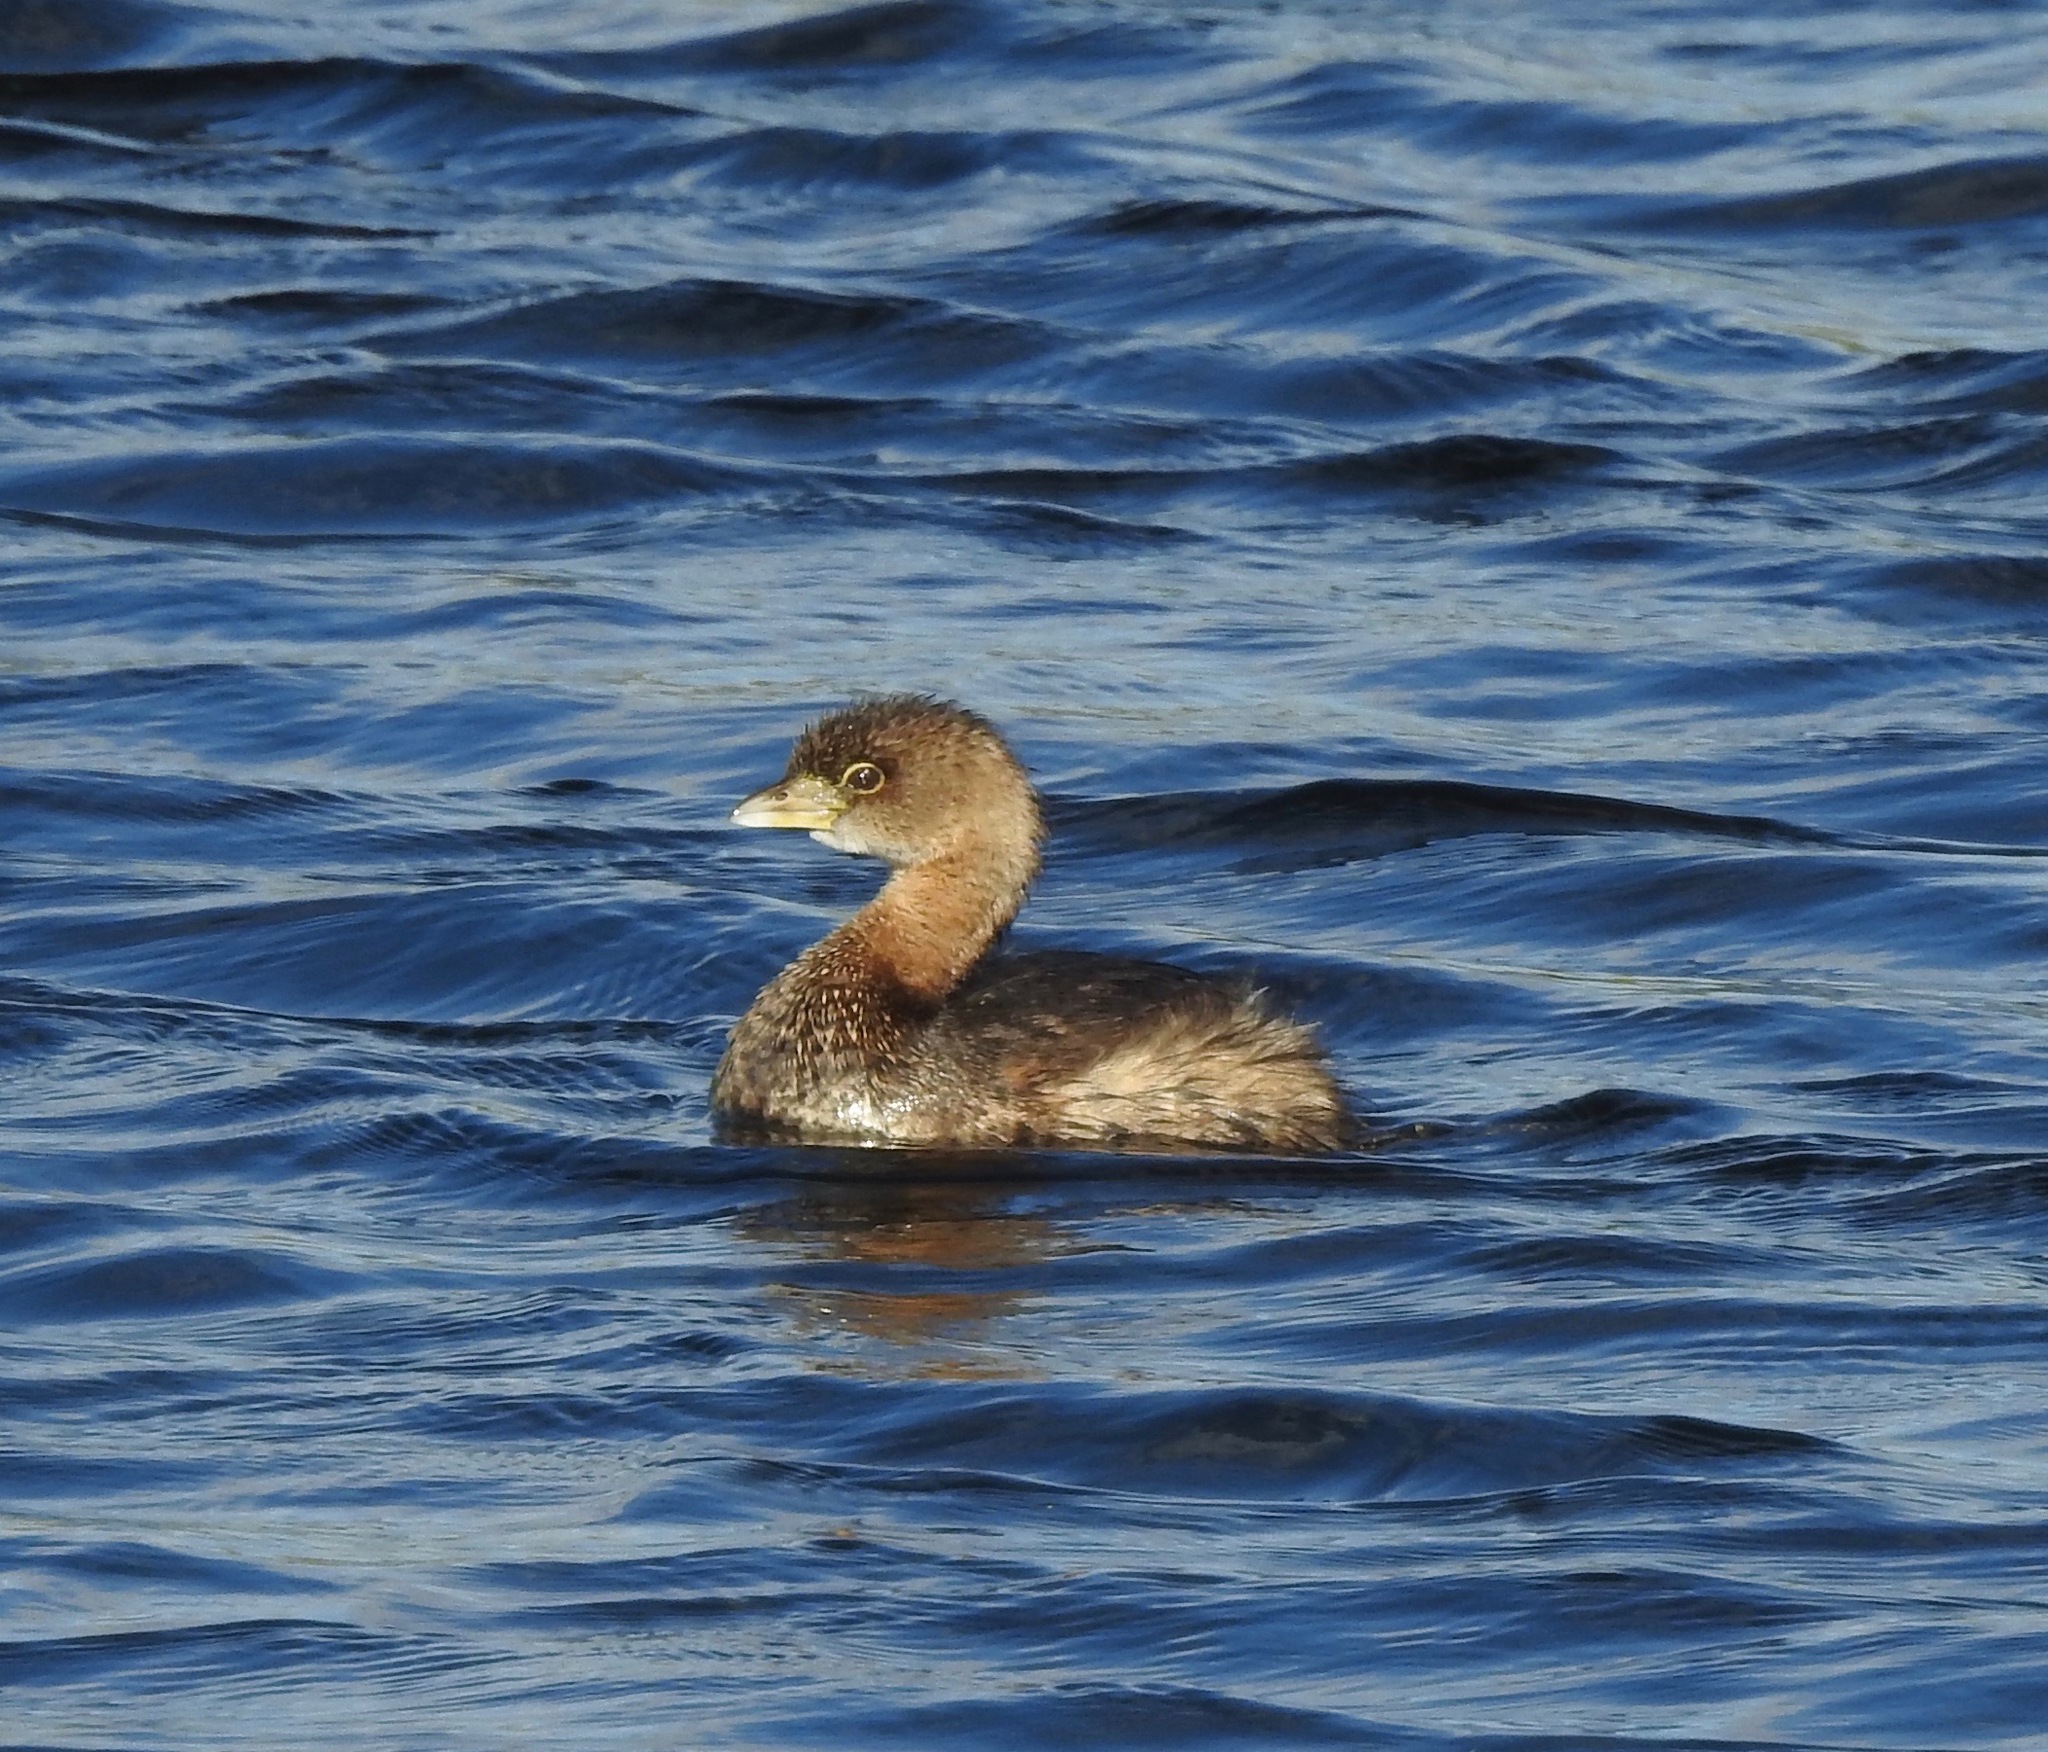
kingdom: Animalia
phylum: Chordata
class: Aves
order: Podicipediformes
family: Podicipedidae
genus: Podilymbus
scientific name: Podilymbus podiceps
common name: Pied-billed grebe
